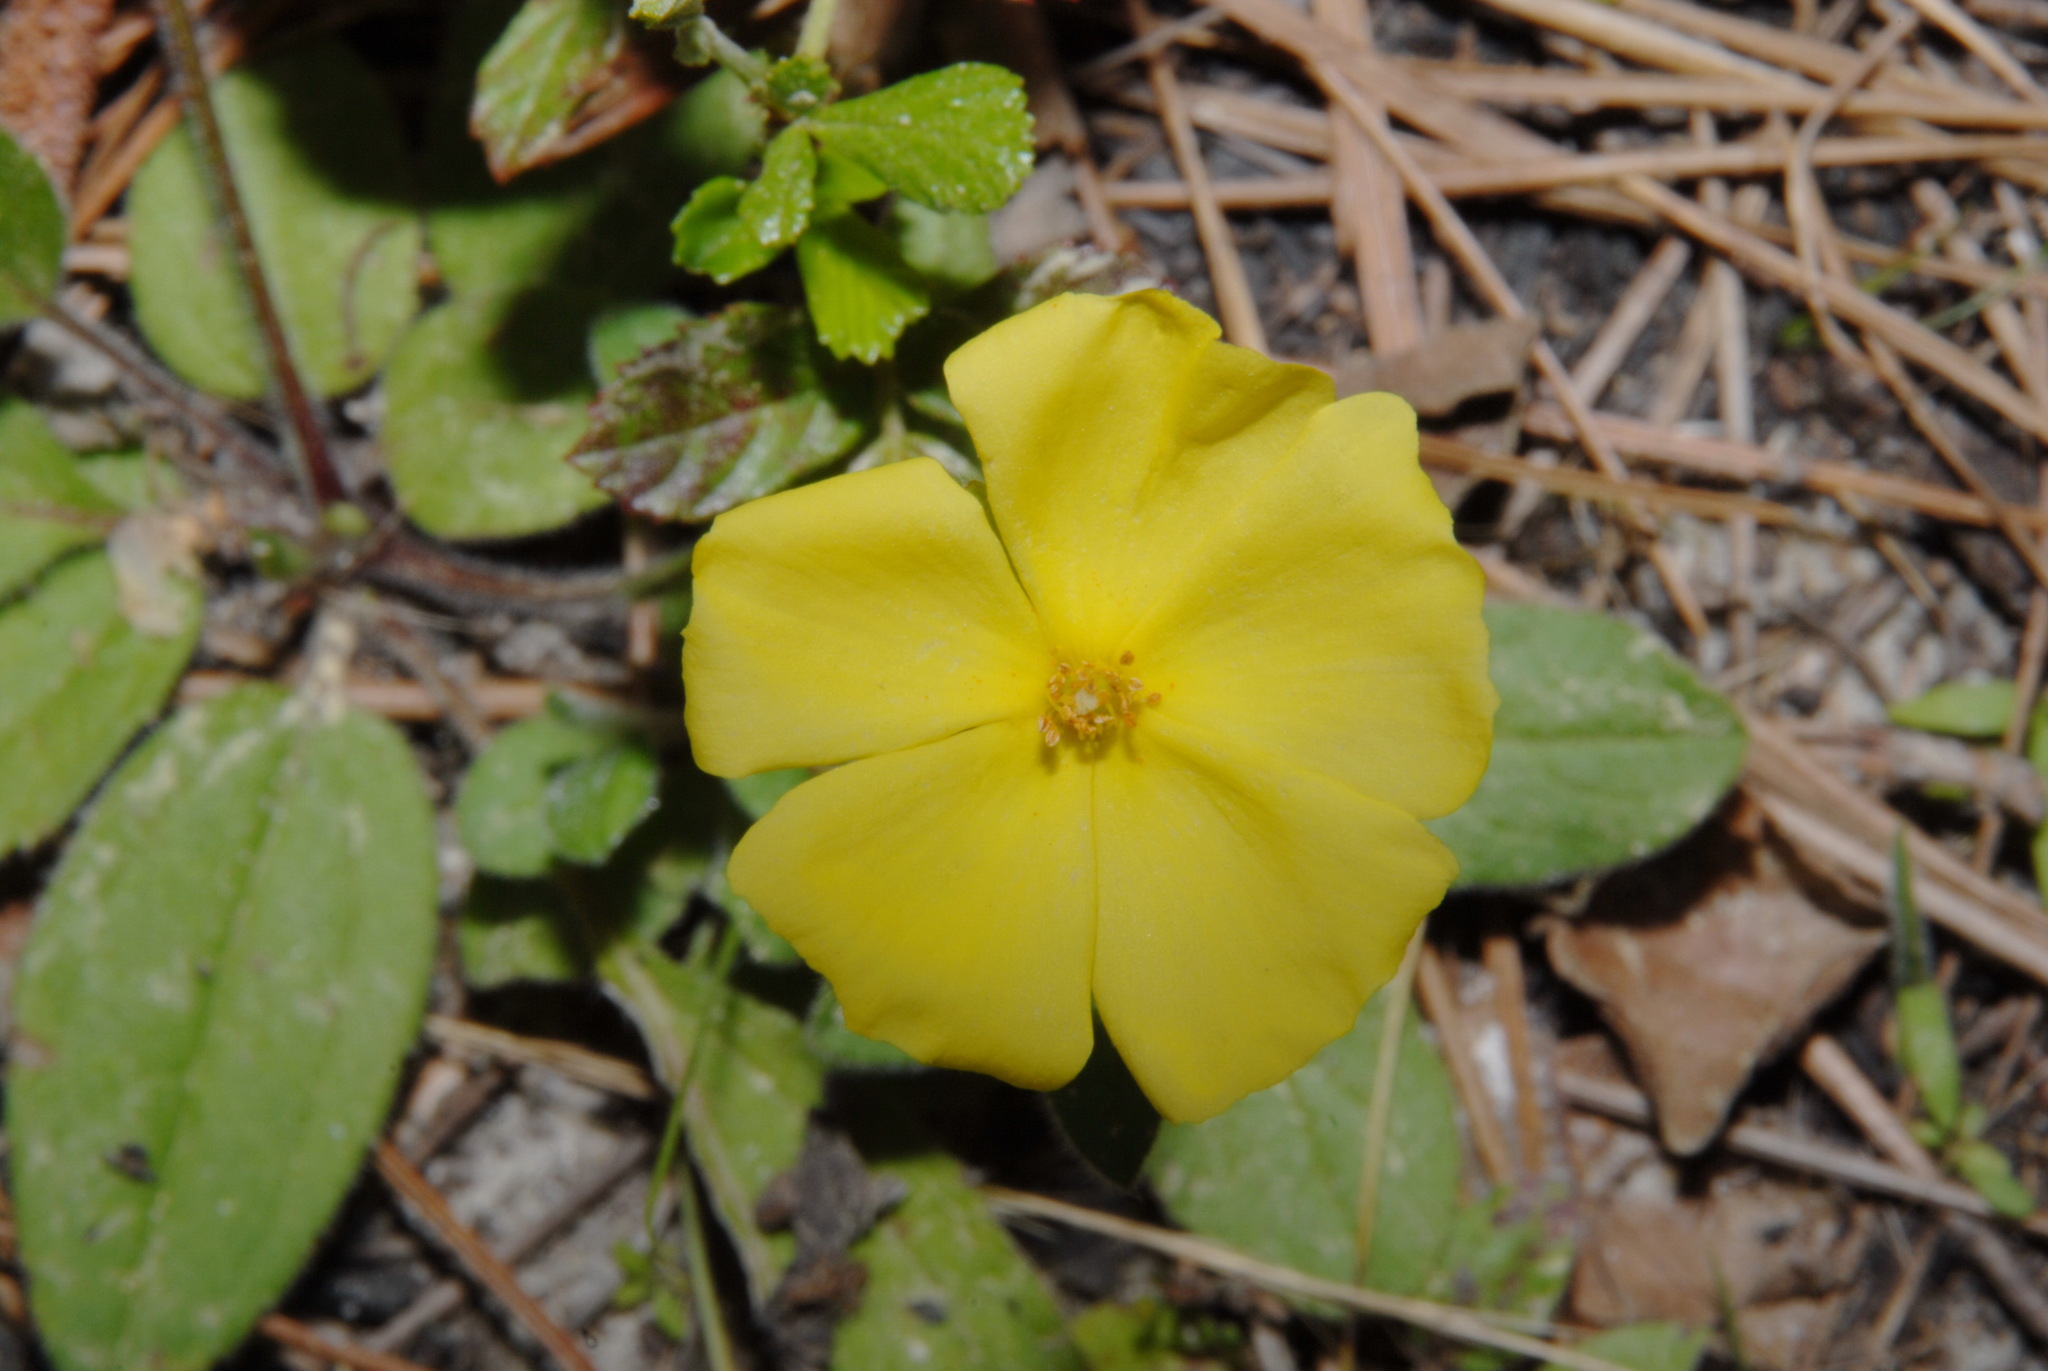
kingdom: Plantae
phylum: Tracheophyta
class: Magnoliopsida
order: Malvales
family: Cistaceae
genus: Crocanthemum
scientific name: Crocanthemum carolinianum
